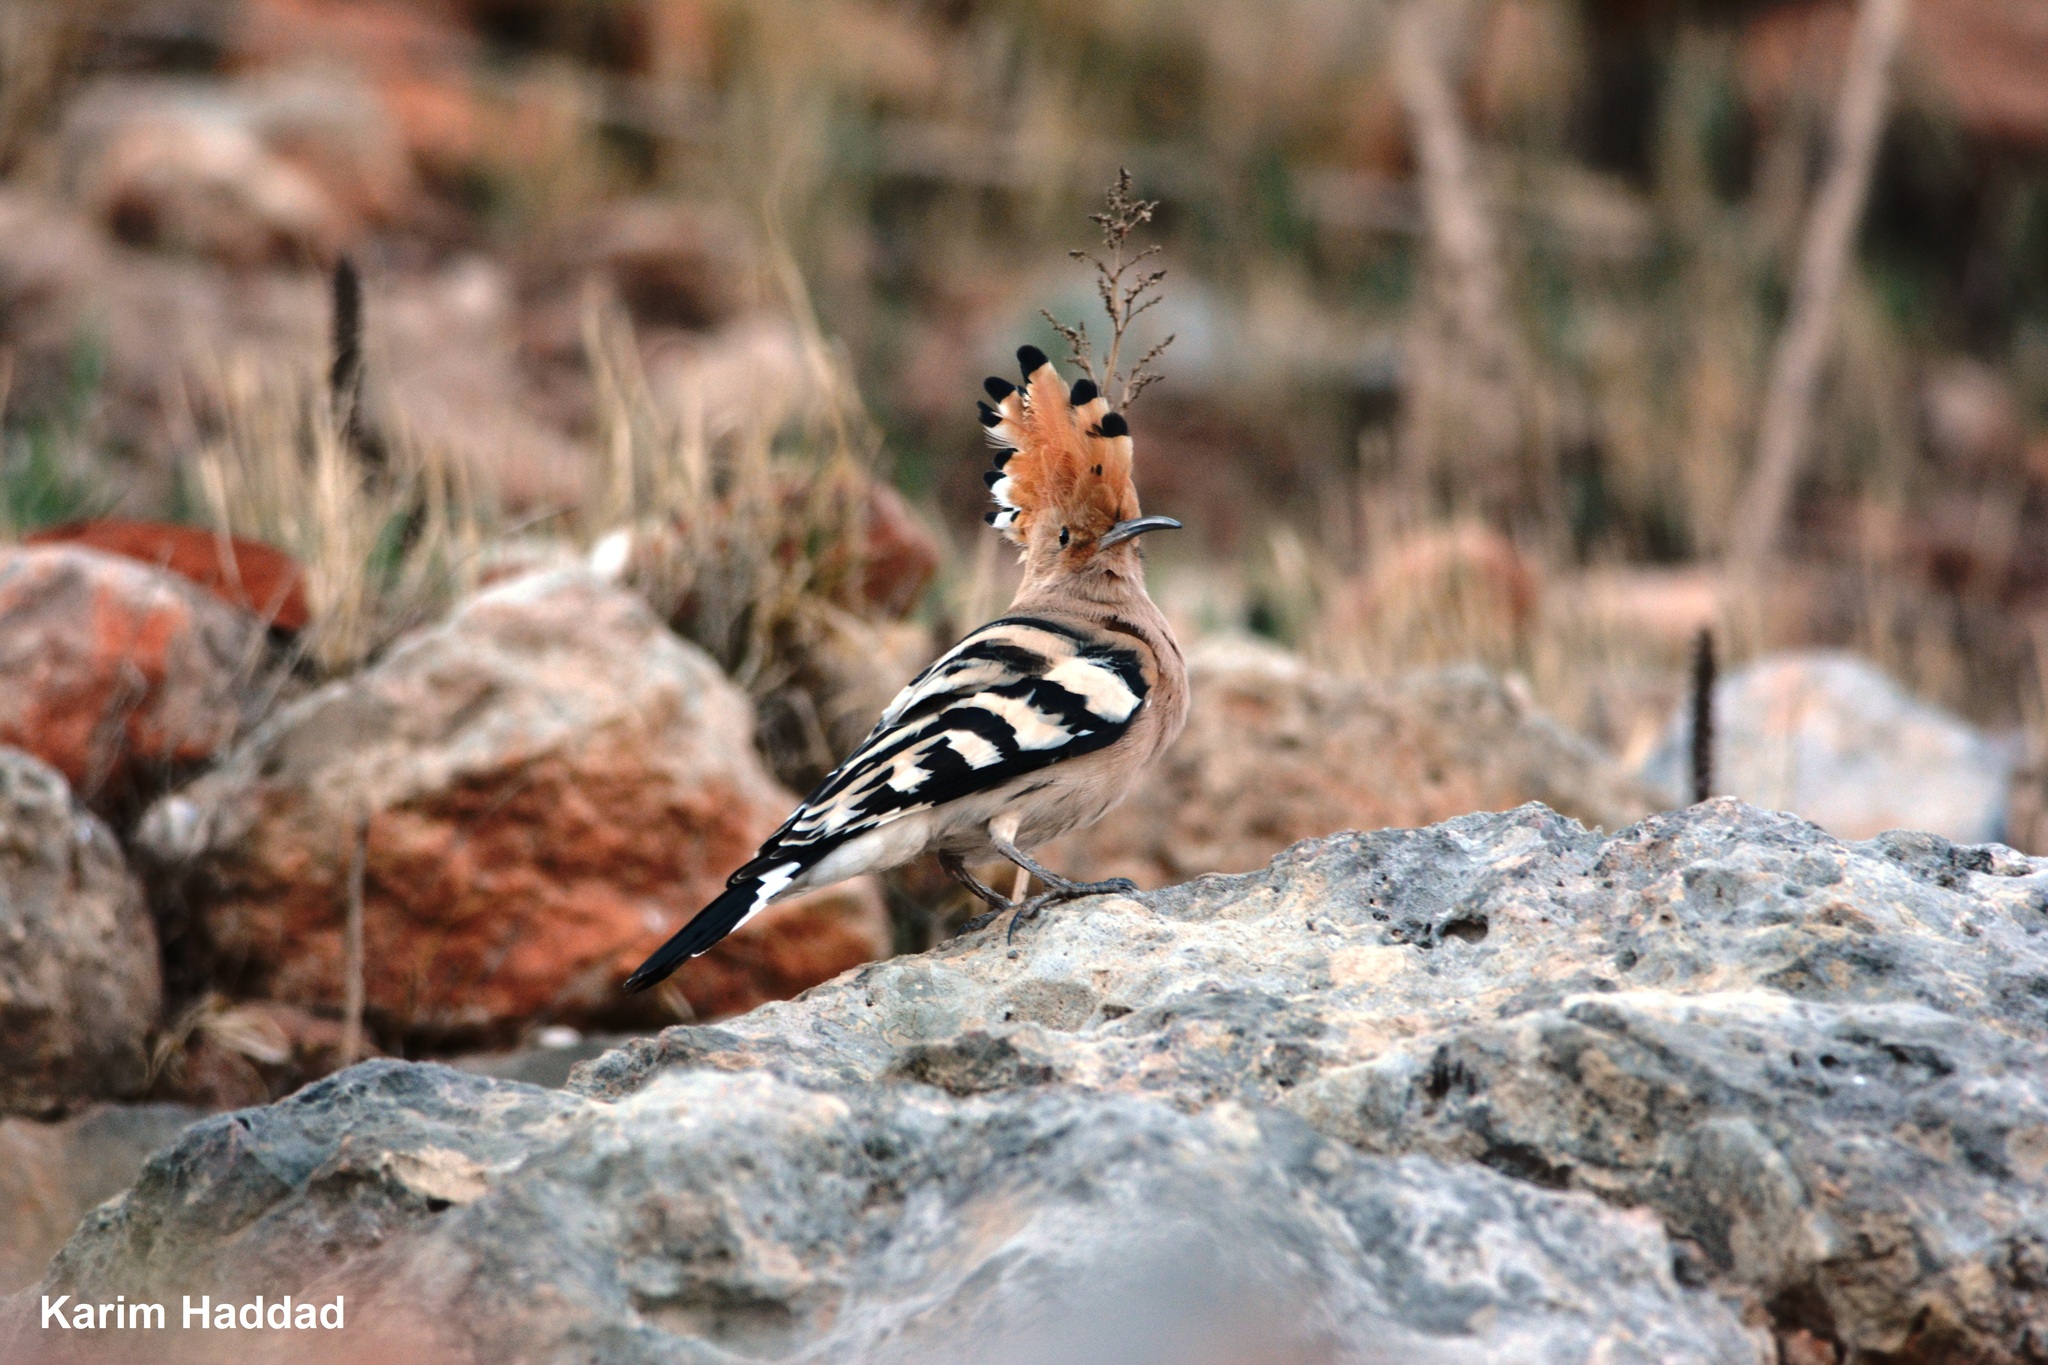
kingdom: Animalia
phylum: Chordata
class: Aves
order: Bucerotiformes
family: Upupidae
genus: Upupa
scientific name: Upupa epops
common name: Eurasian hoopoe
